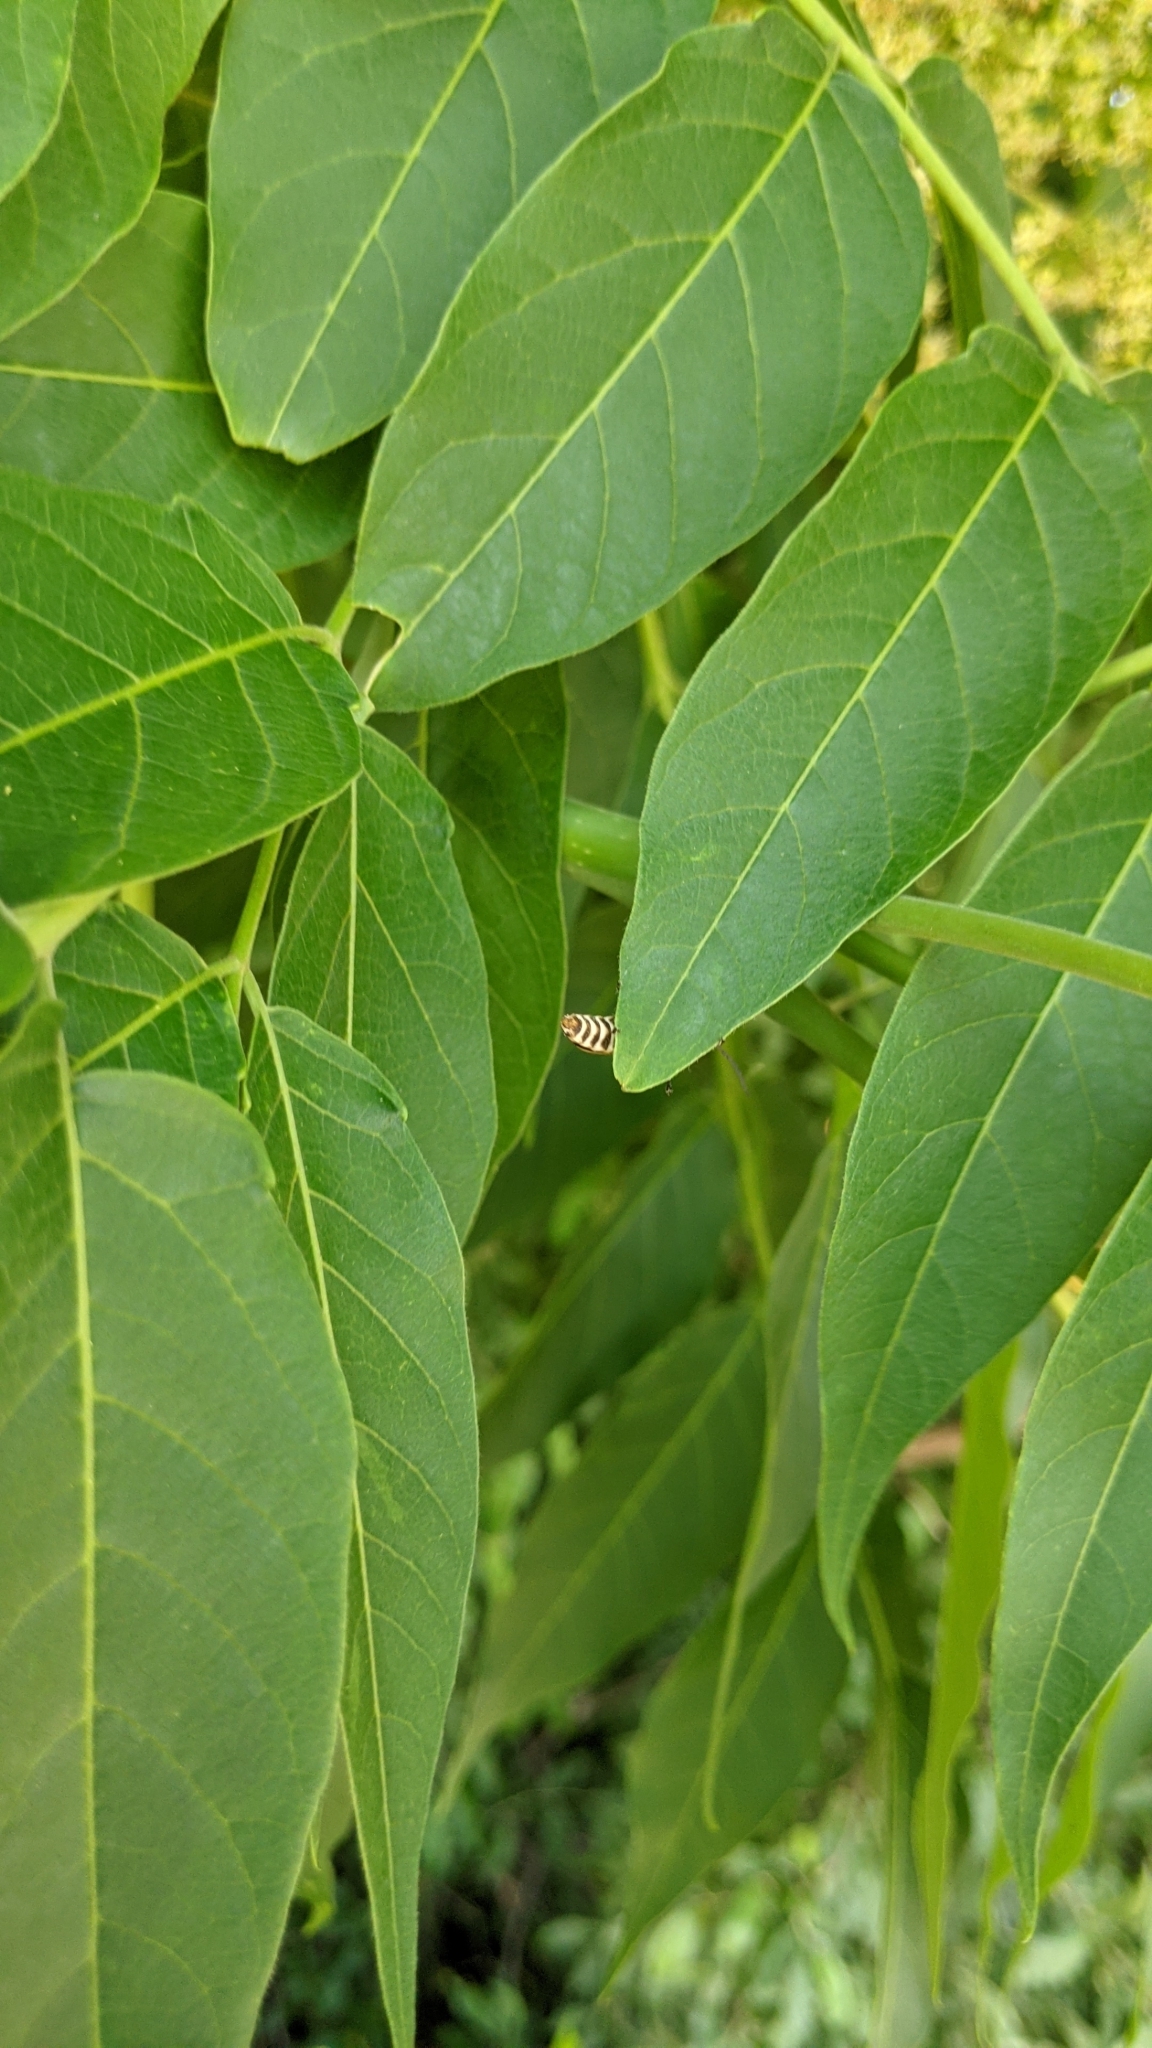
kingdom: Animalia
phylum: Arthropoda
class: Insecta
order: Coleoptera
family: Cantharidae
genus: Chauliognathus
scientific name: Chauliognathus marginatus
